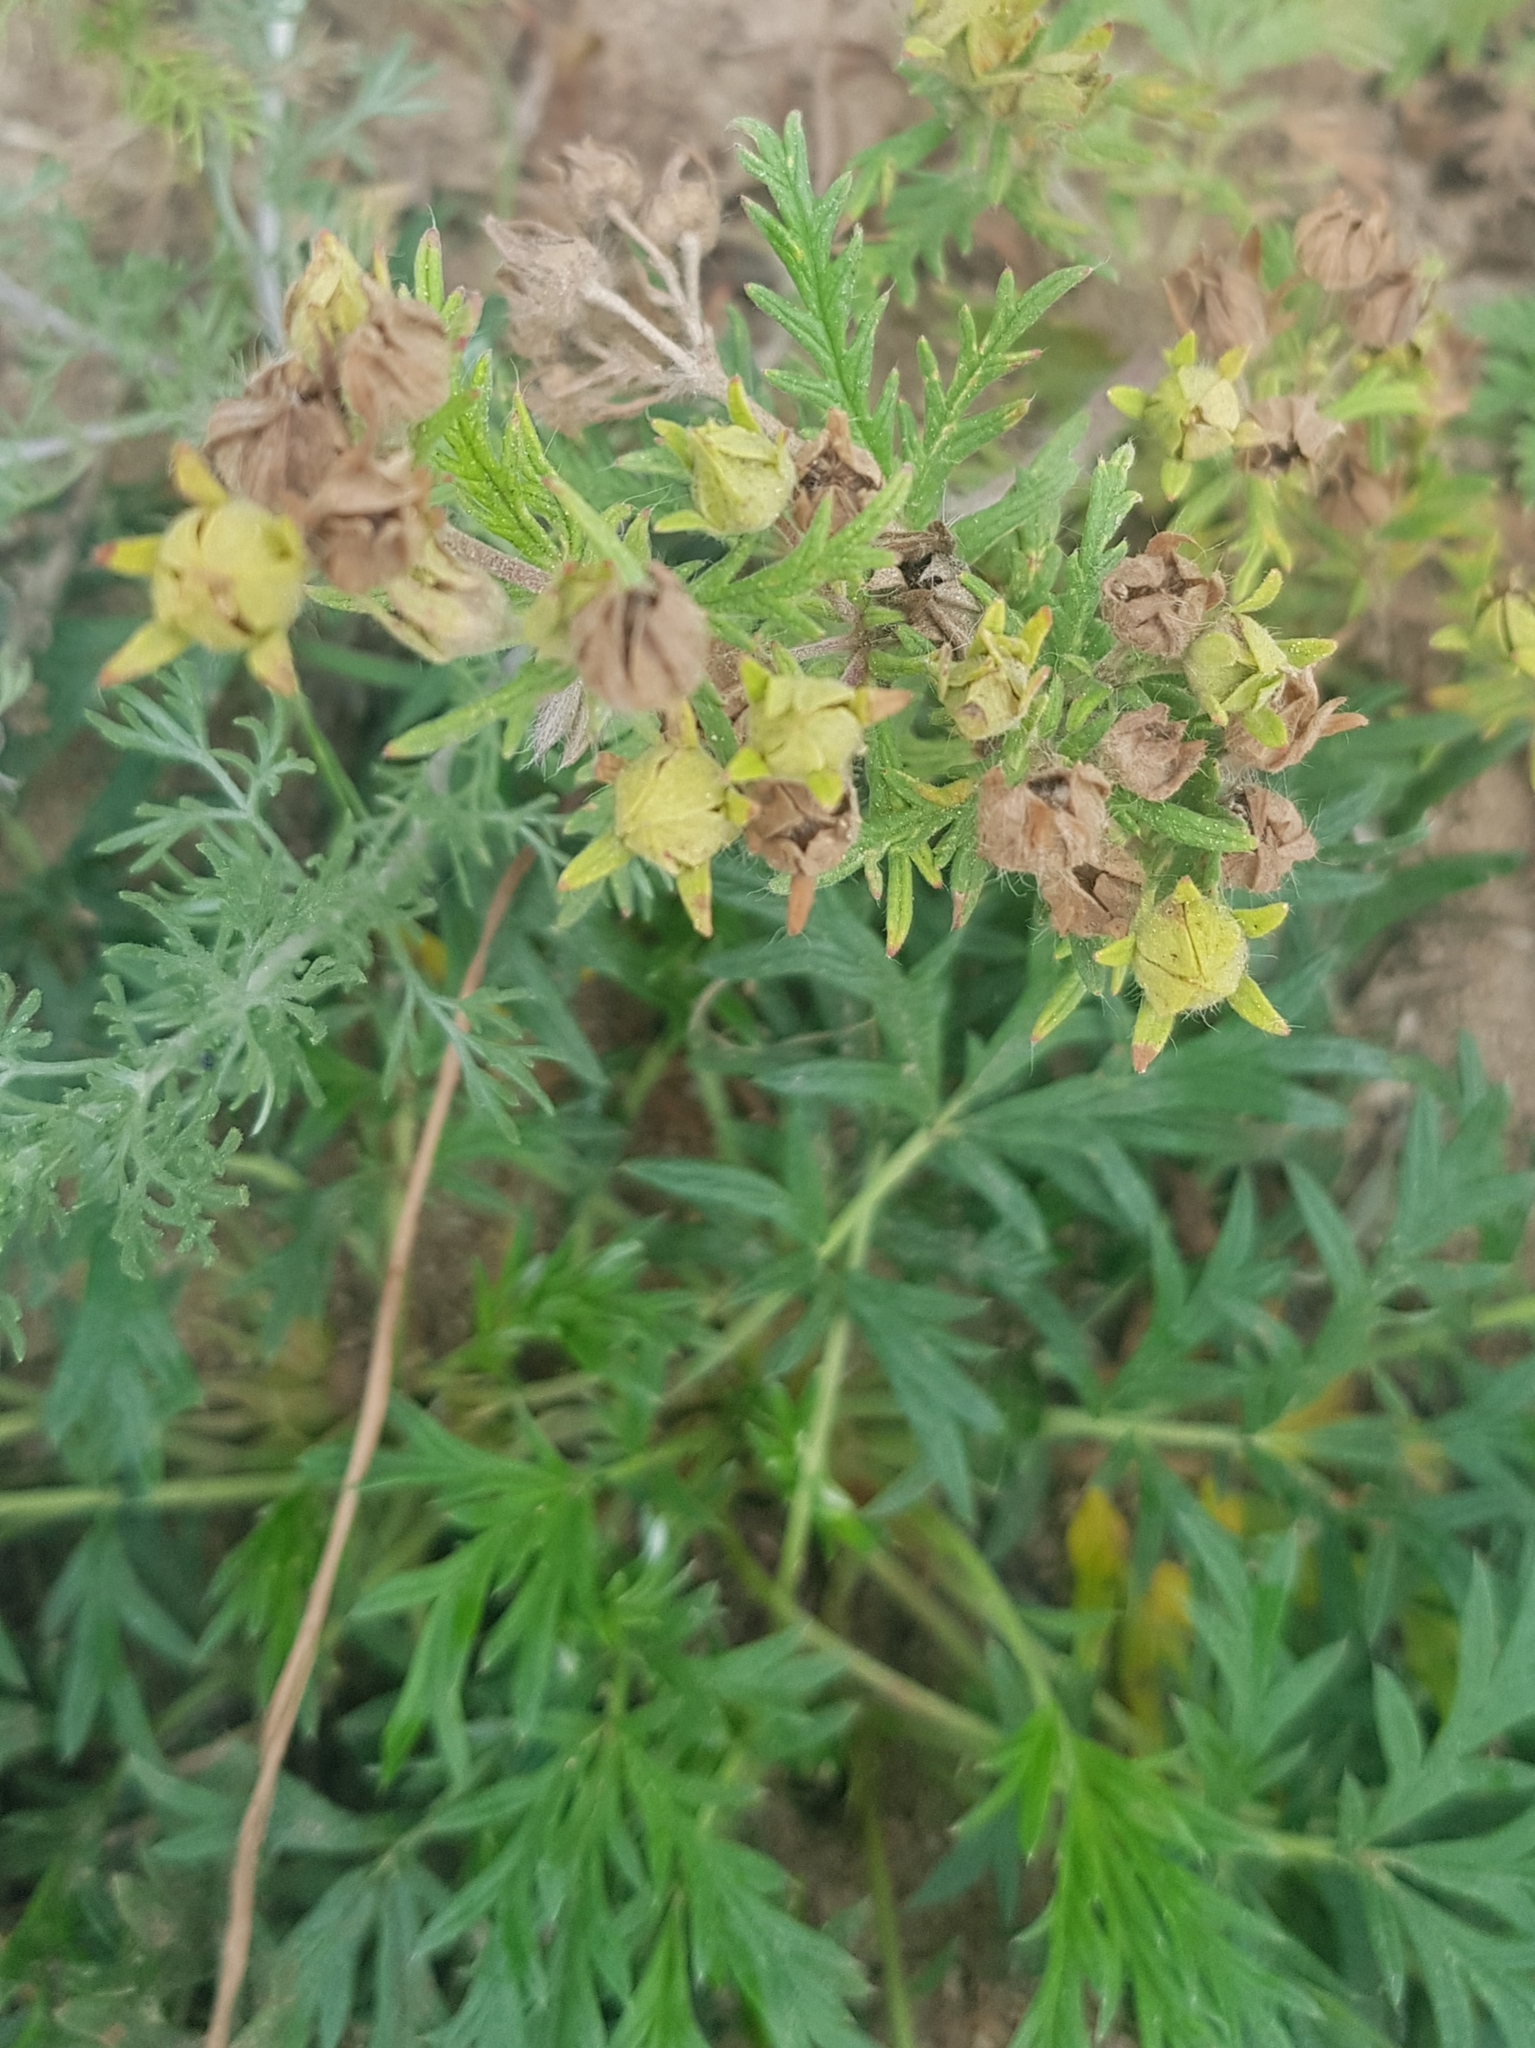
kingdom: Plantae
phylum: Tracheophyta
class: Magnoliopsida
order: Rosales
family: Rosaceae
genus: Potentilla
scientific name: Potentilla tergemina
